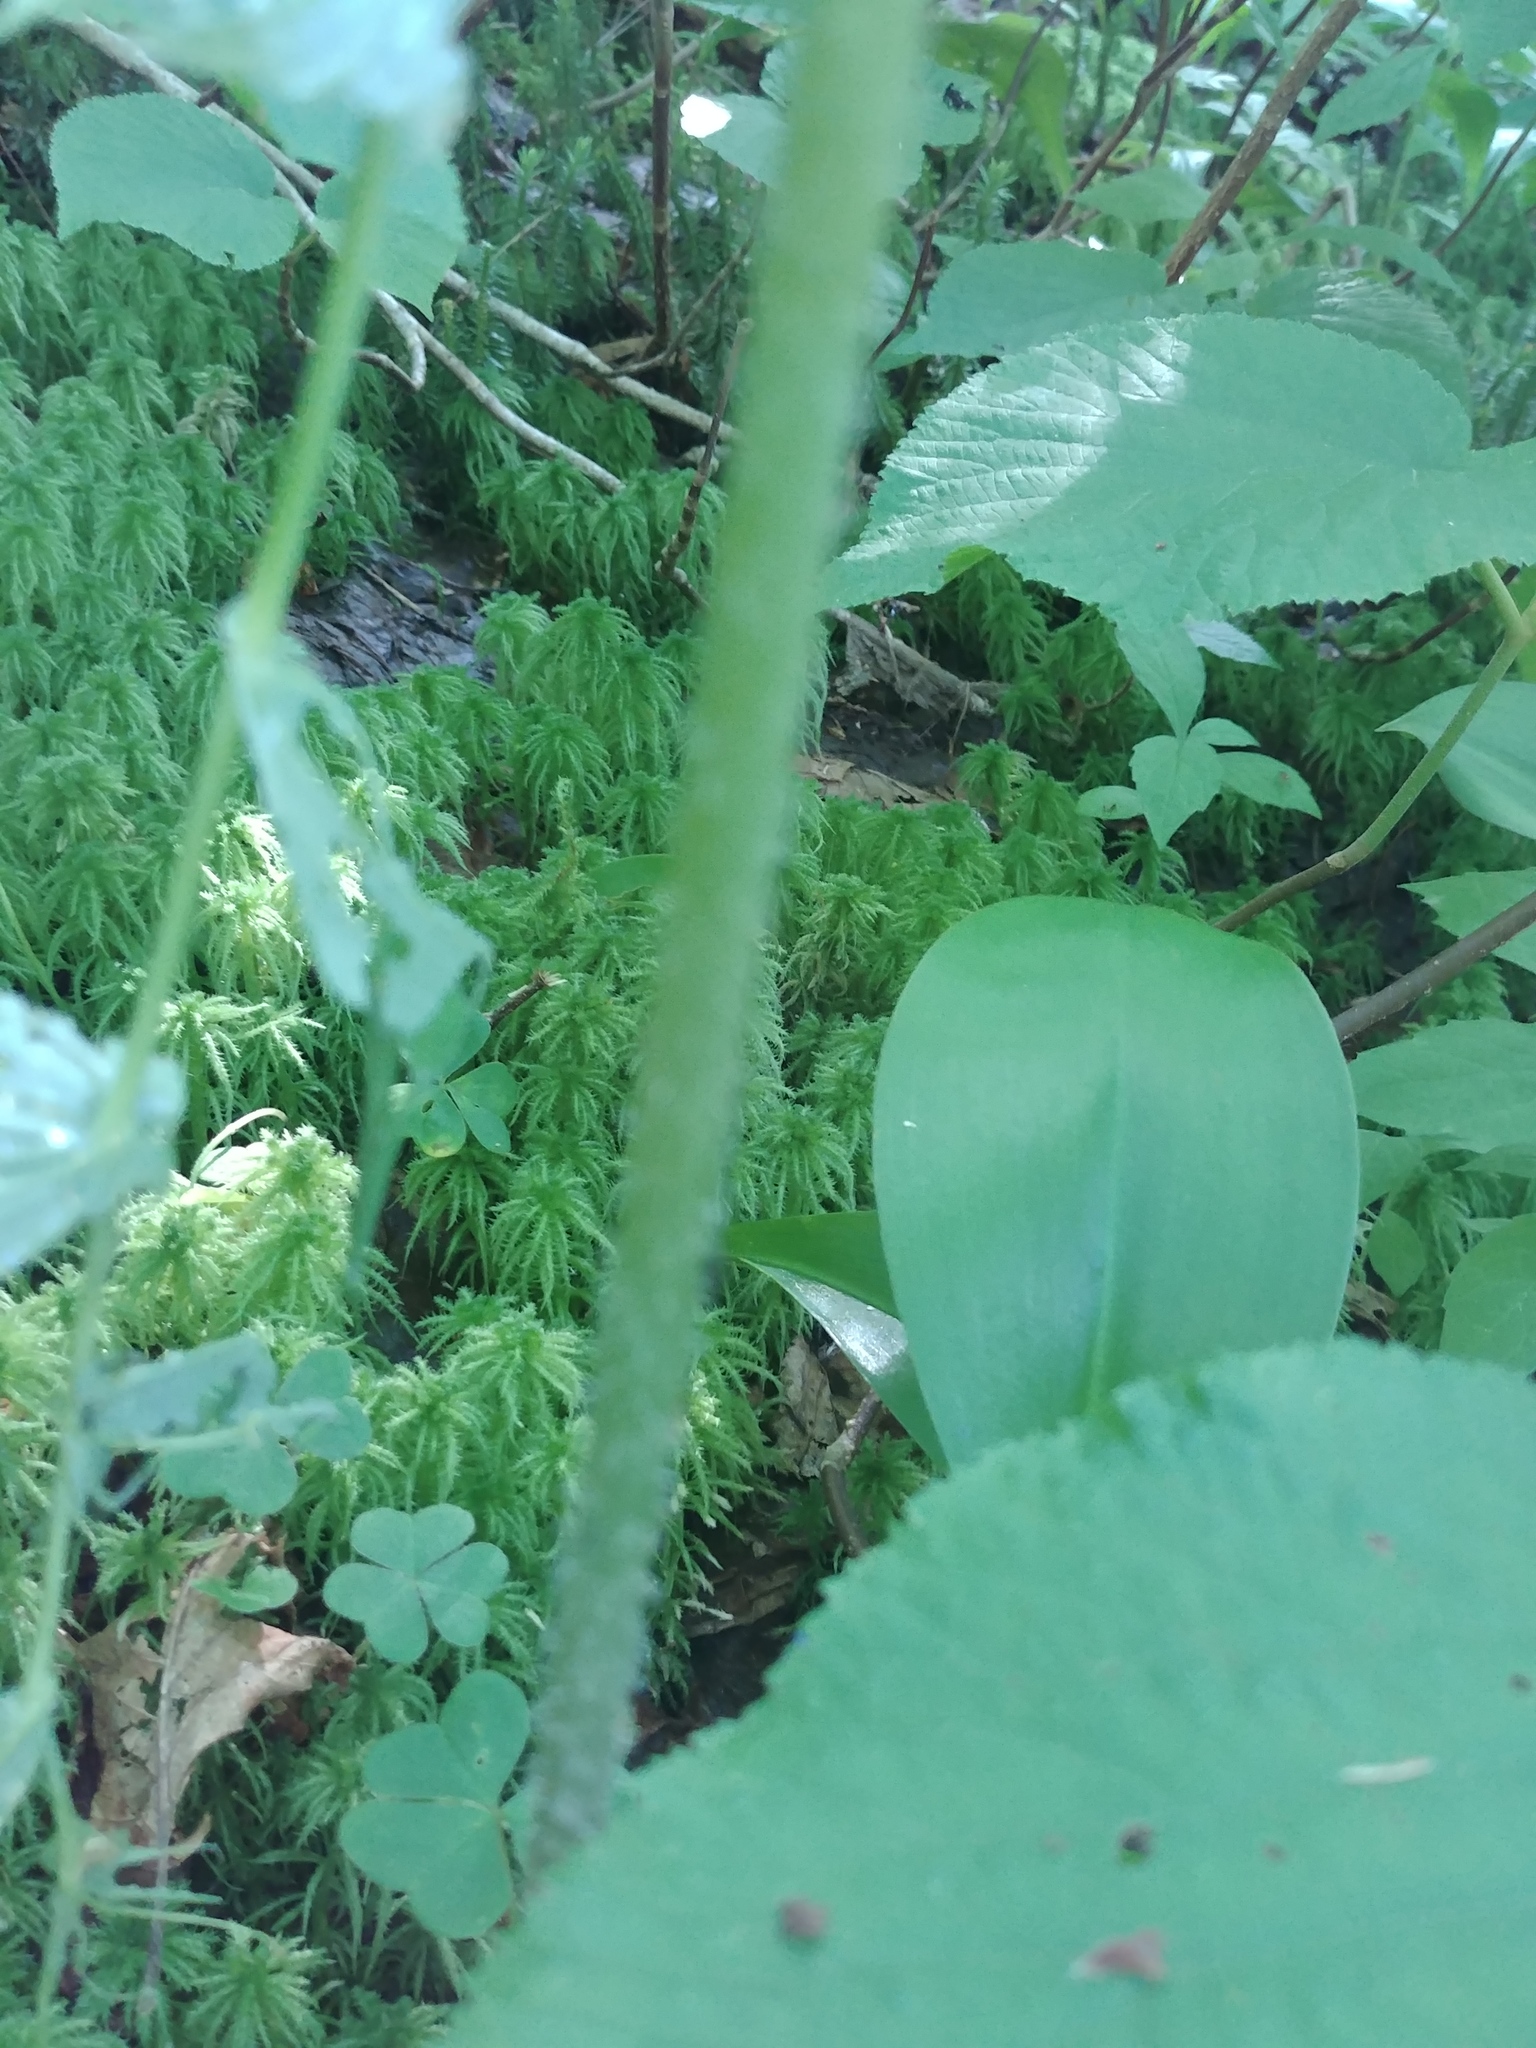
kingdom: Plantae
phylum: Tracheophyta
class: Liliopsida
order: Liliales
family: Liliaceae
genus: Streptopus
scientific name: Streptopus amplexifolius
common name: Clasp twisted stalk
